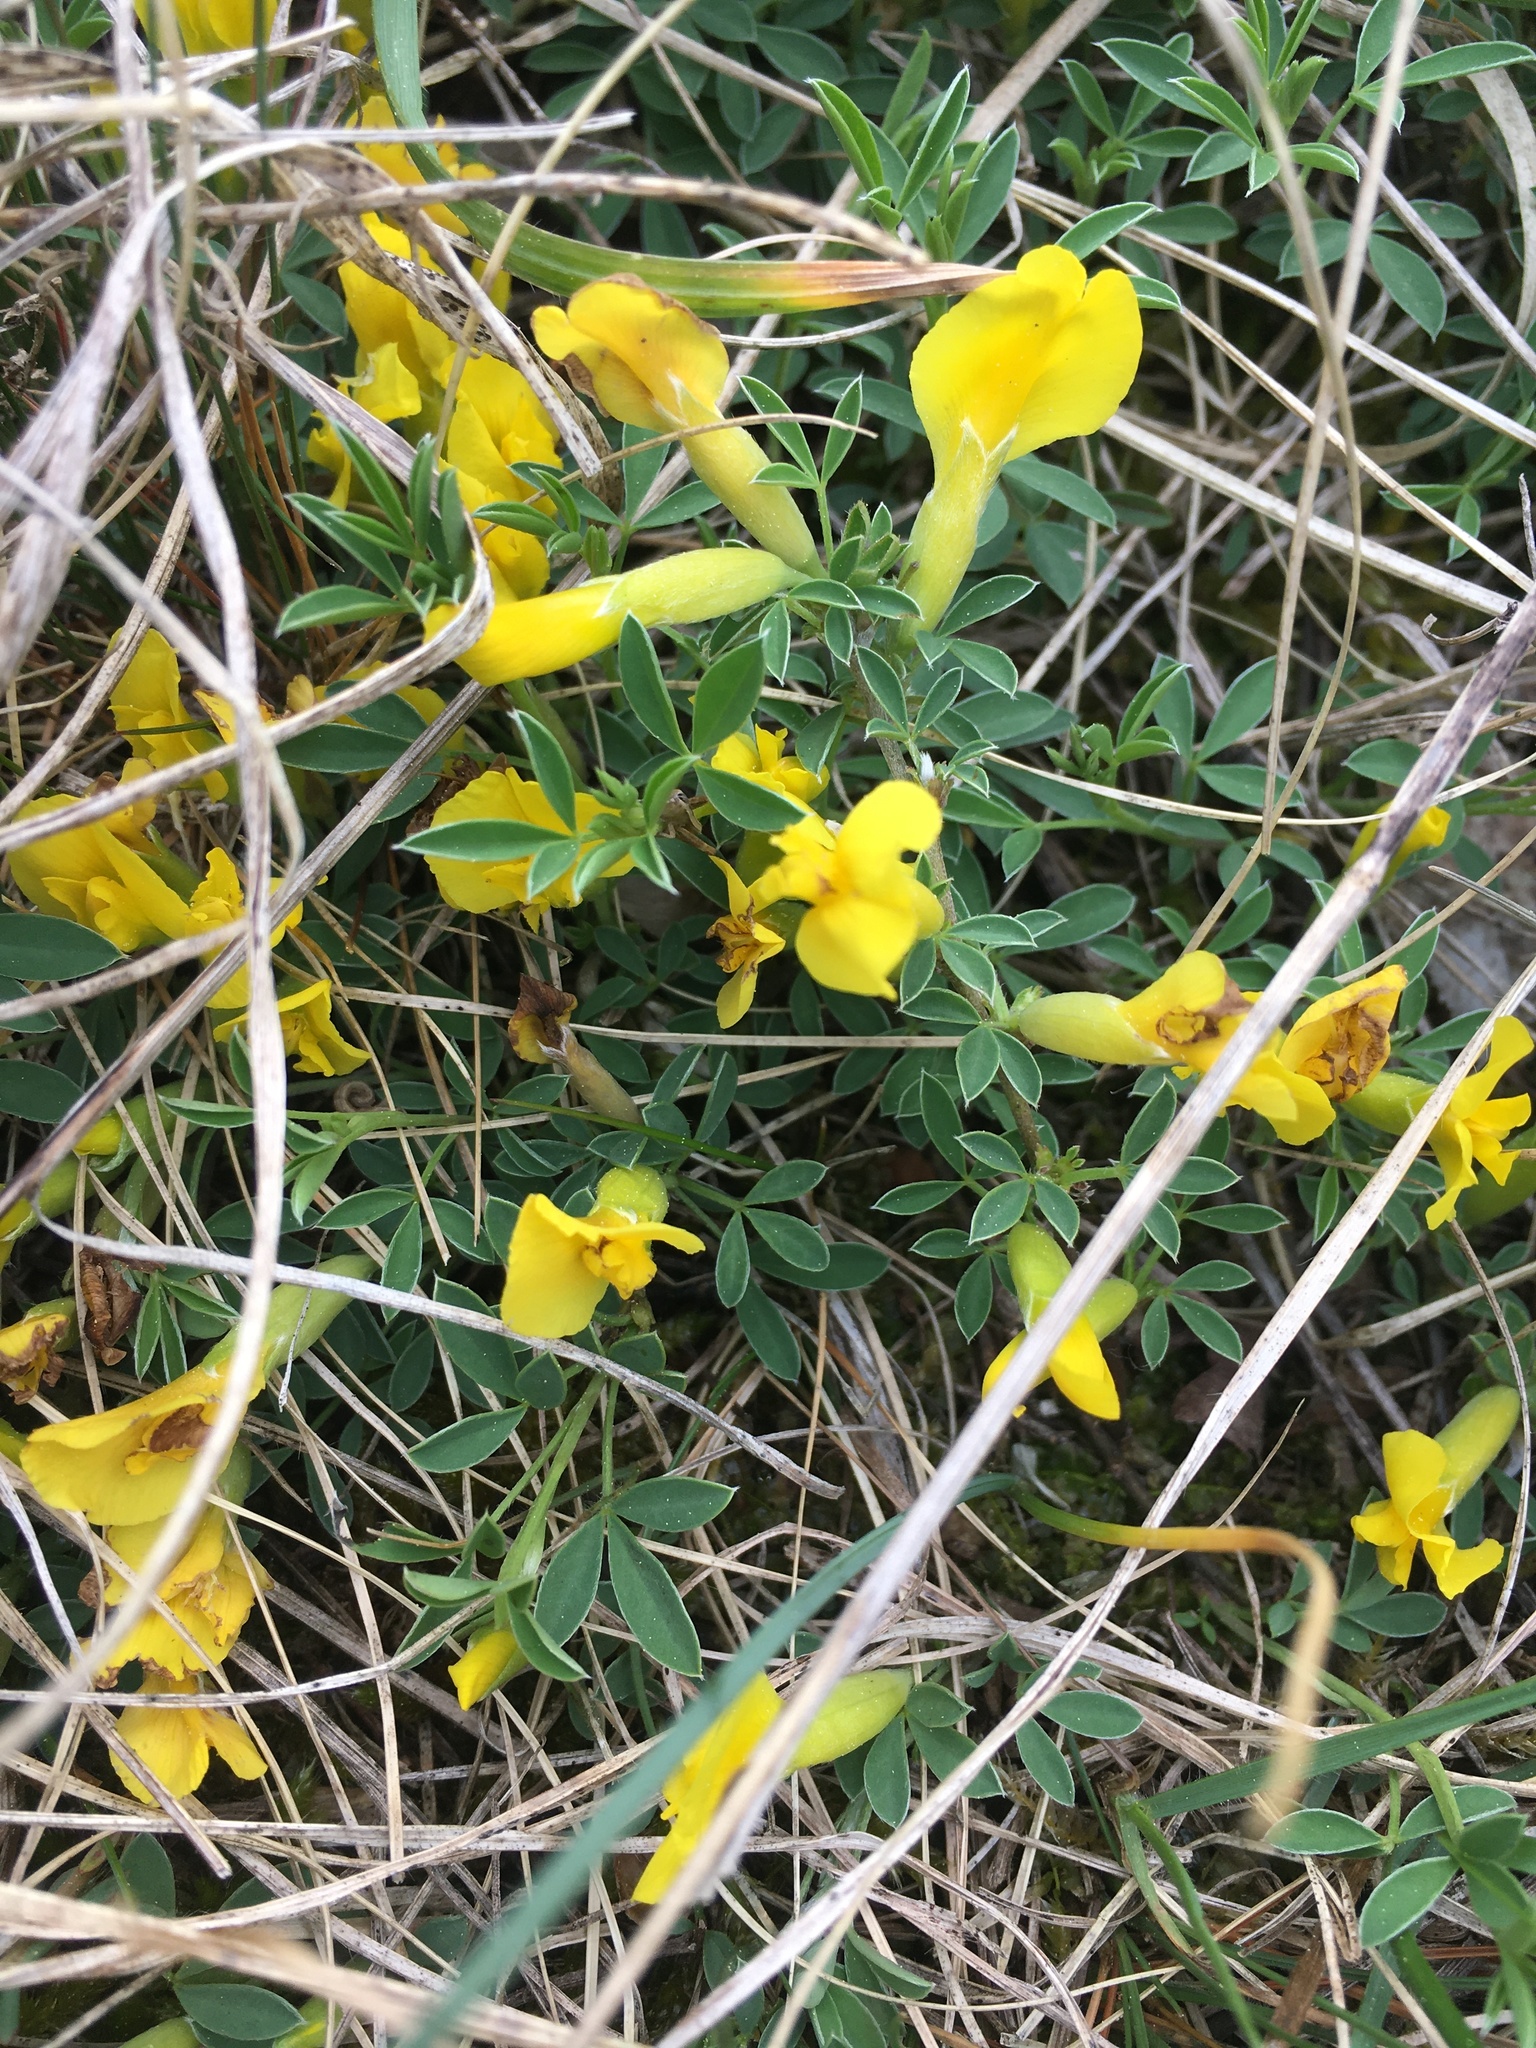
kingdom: Plantae
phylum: Tracheophyta
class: Magnoliopsida
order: Fabales
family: Fabaceae
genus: Chamaecytisus
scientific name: Chamaecytisus ratisbonensis
